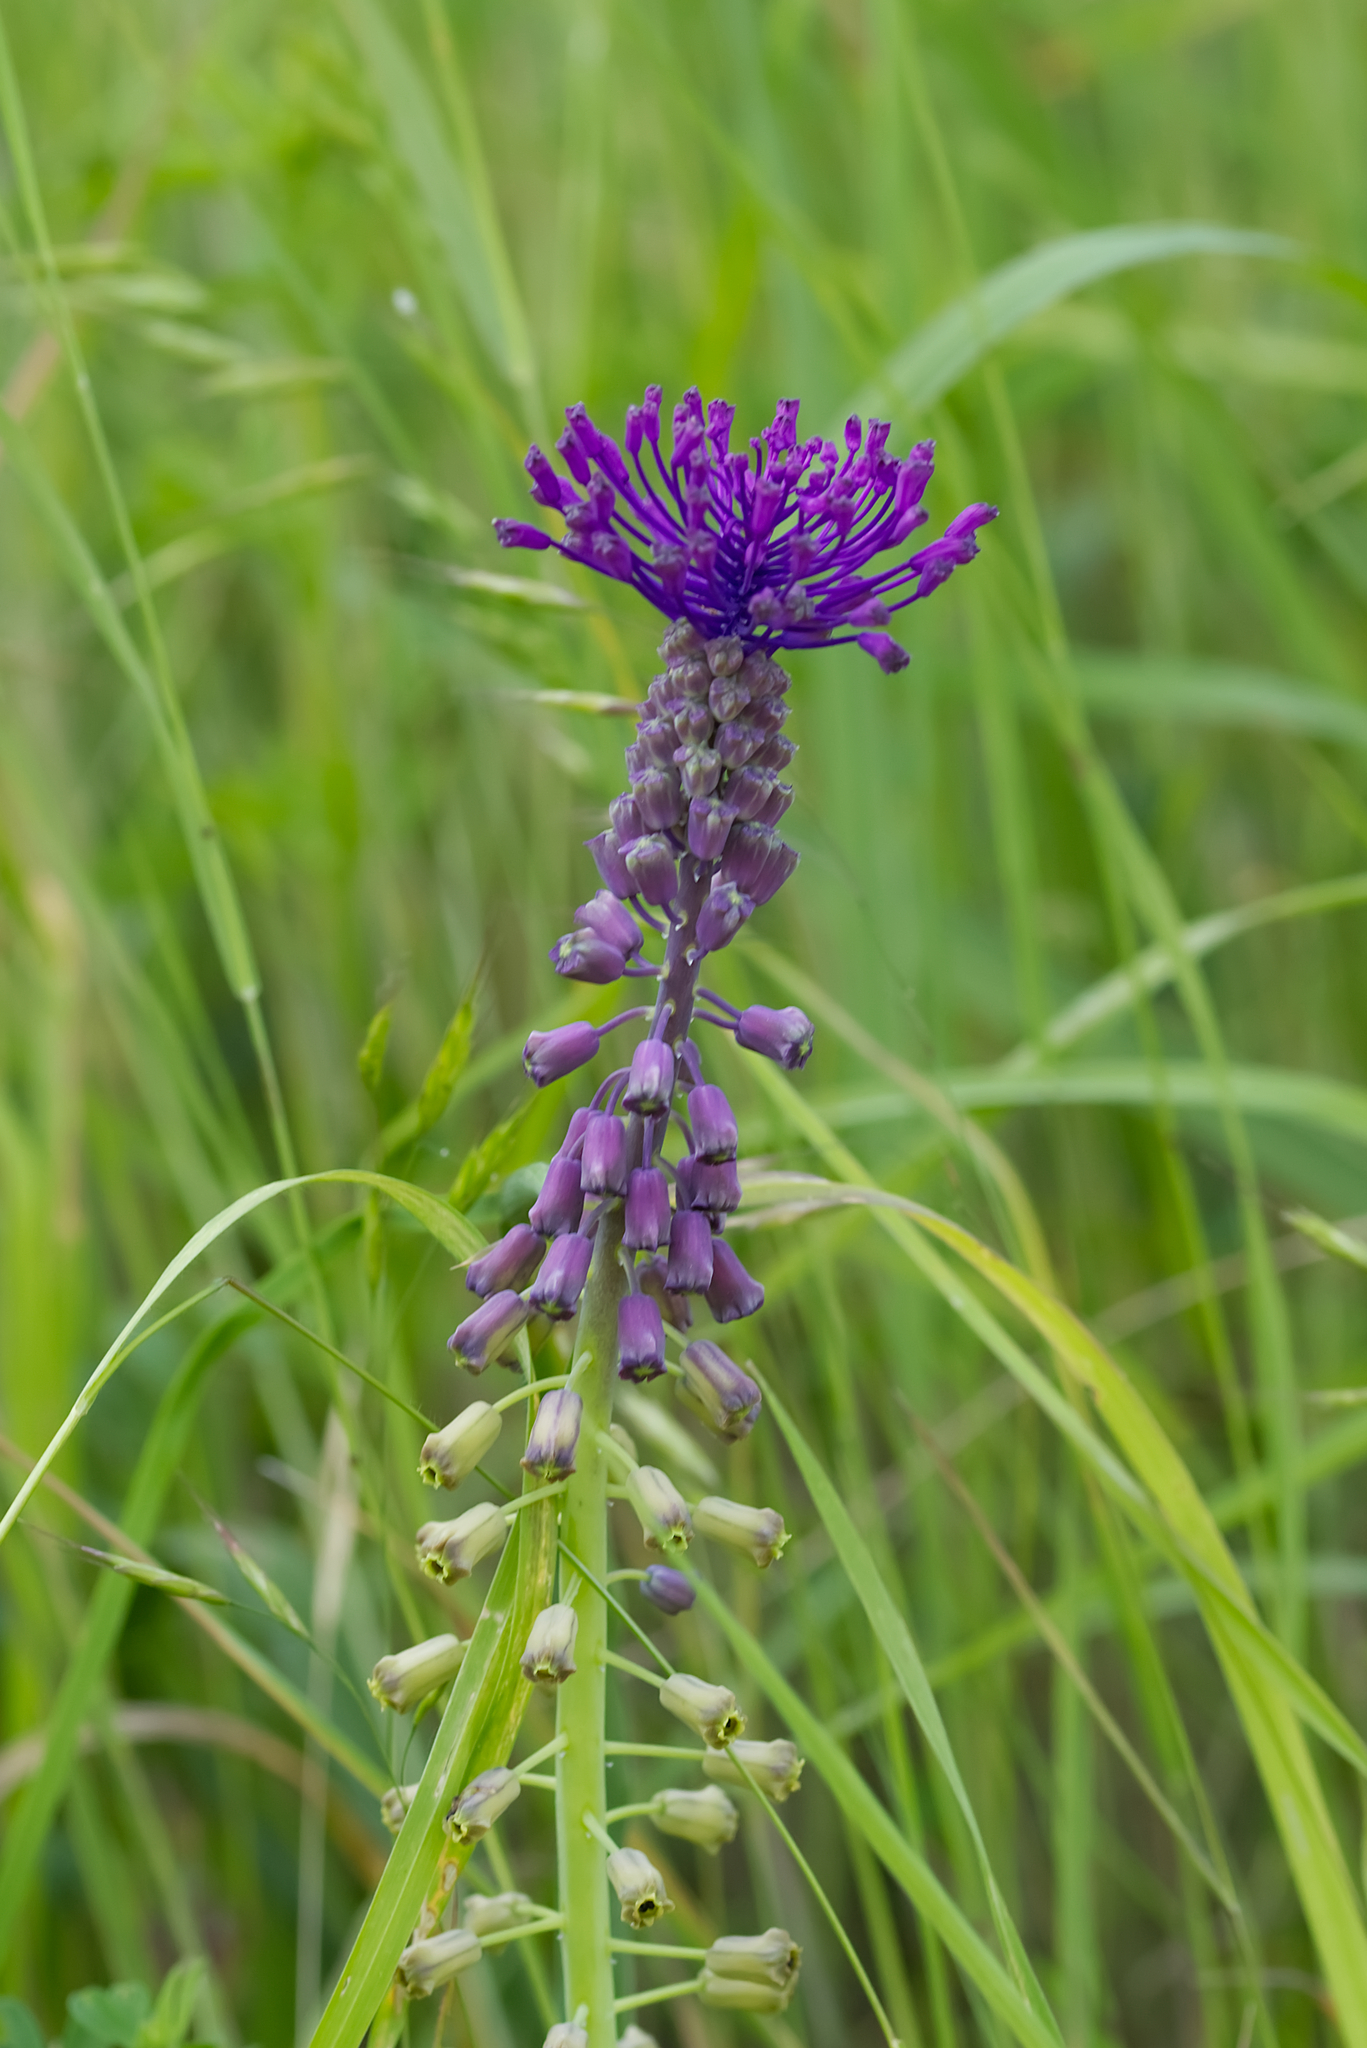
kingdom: Plantae
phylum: Tracheophyta
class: Liliopsida
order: Asparagales
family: Asparagaceae
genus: Muscari
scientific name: Muscari comosum
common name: Tassel hyacinth
